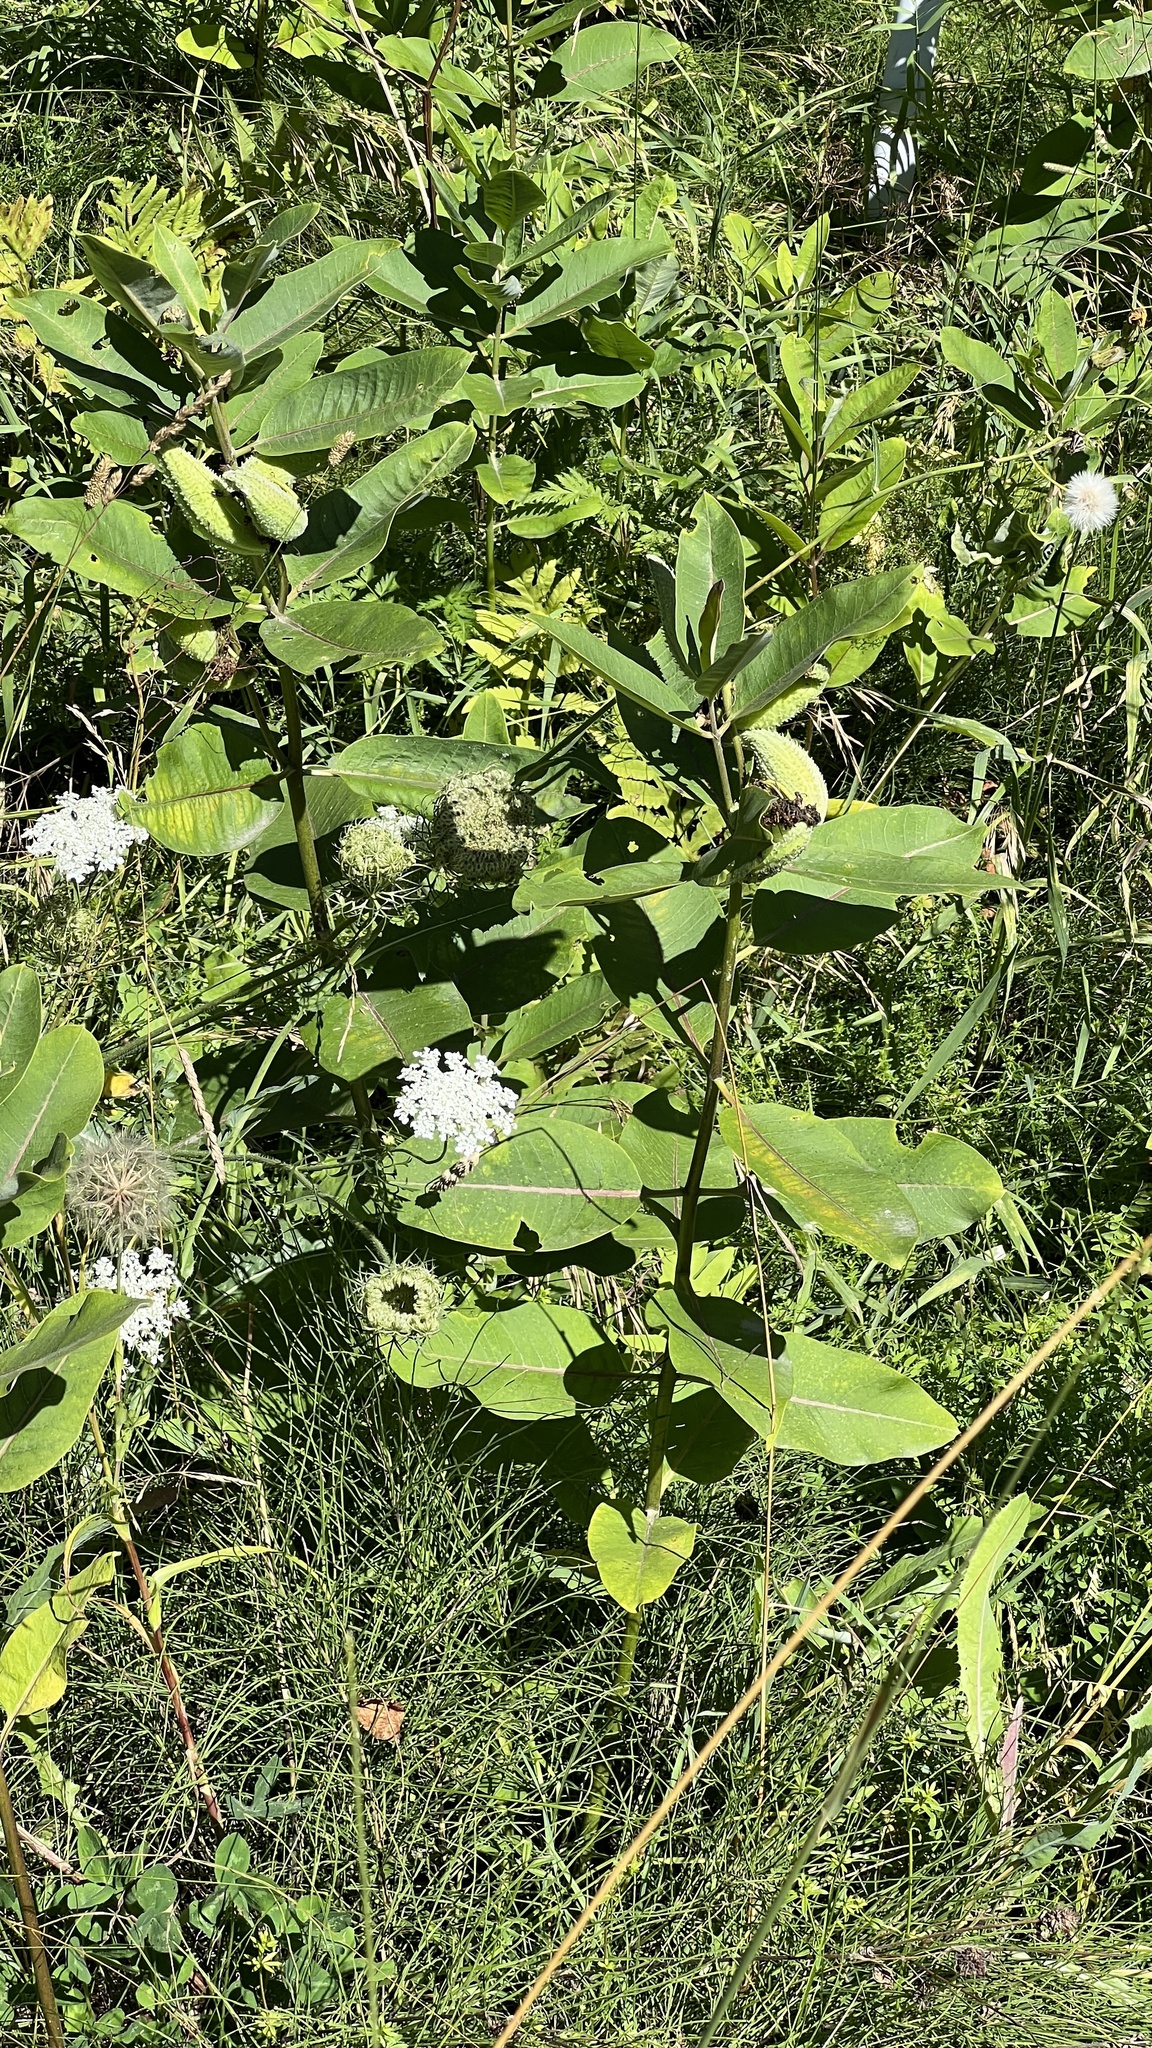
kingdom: Plantae
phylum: Tracheophyta
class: Magnoliopsida
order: Gentianales
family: Apocynaceae
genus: Asclepias
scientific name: Asclepias syriaca
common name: Common milkweed
